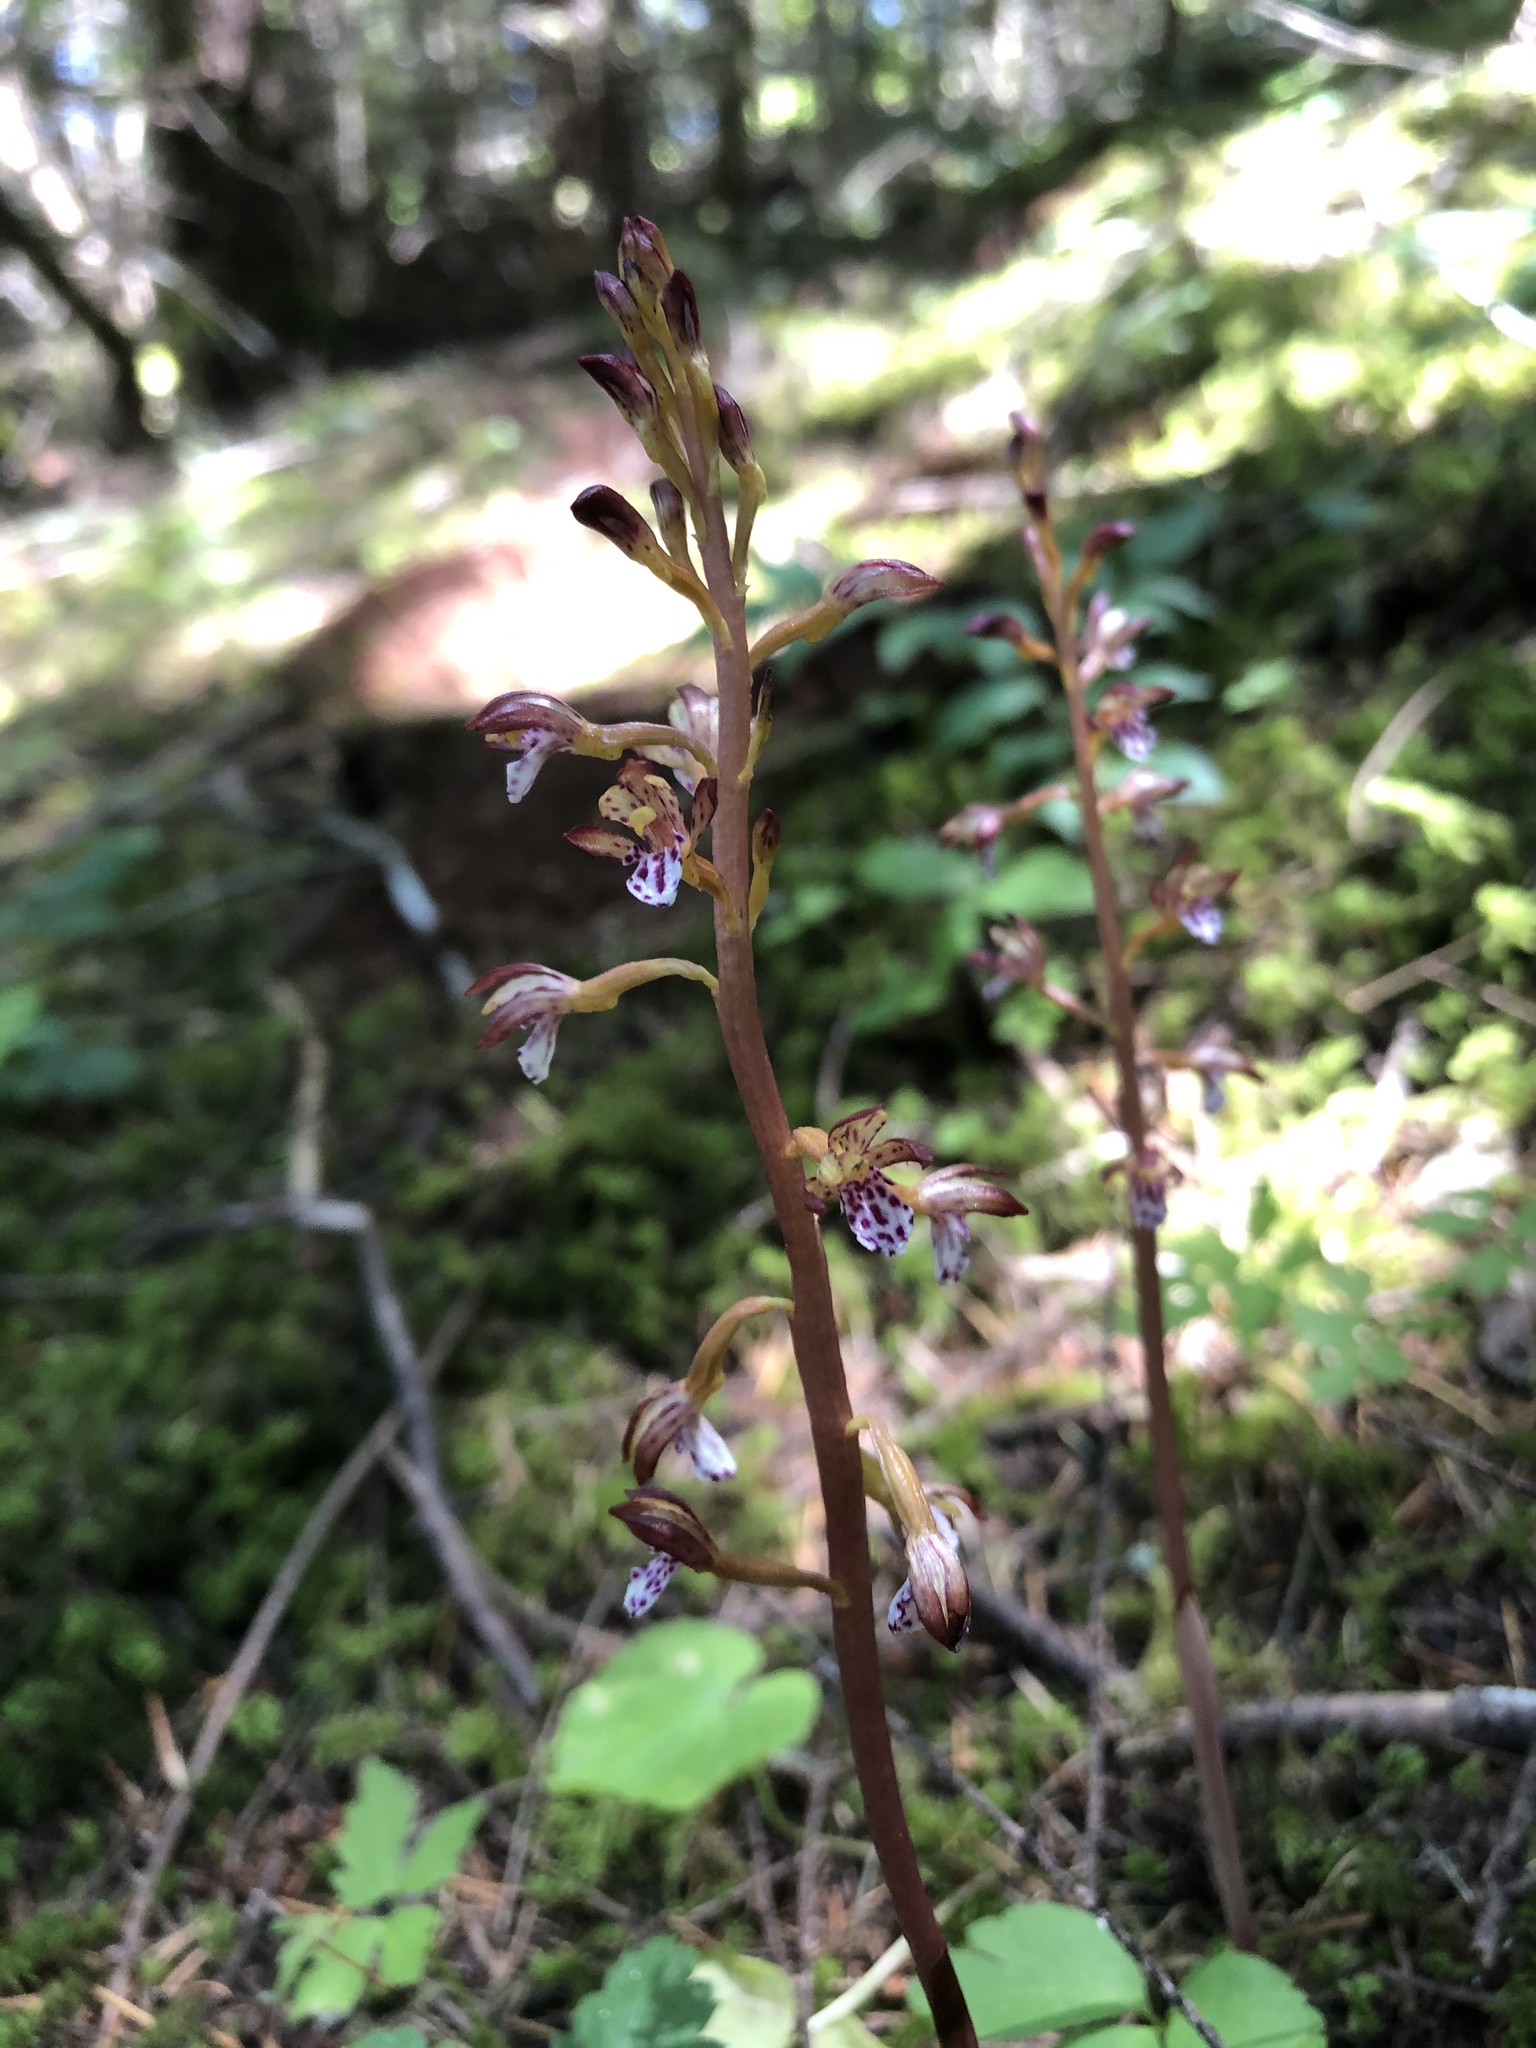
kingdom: Plantae
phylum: Tracheophyta
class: Liliopsida
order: Asparagales
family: Orchidaceae
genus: Corallorhiza
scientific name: Corallorhiza maculata
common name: Spotted coralroot
